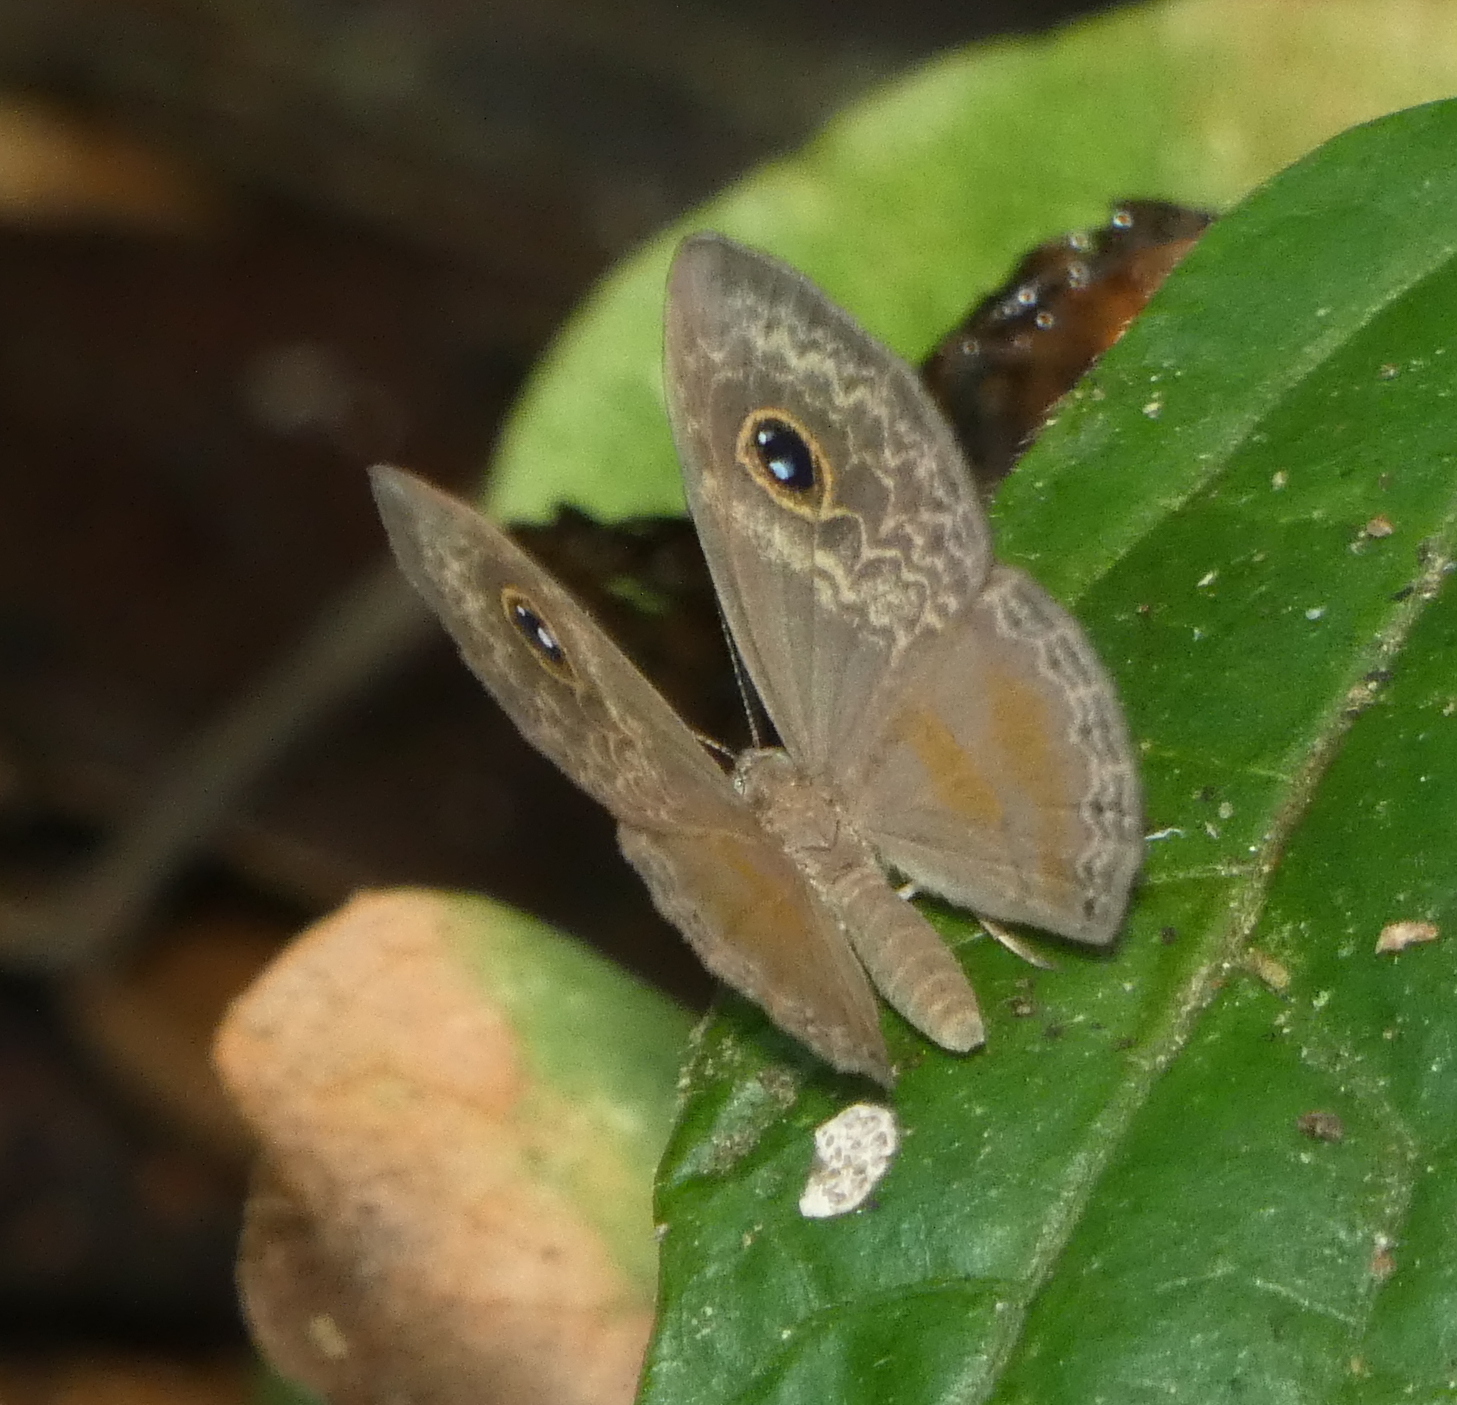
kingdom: Animalia
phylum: Arthropoda
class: Insecta
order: Lepidoptera
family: Riodinidae
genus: Perophthalma
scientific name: Perophthalma tullius
